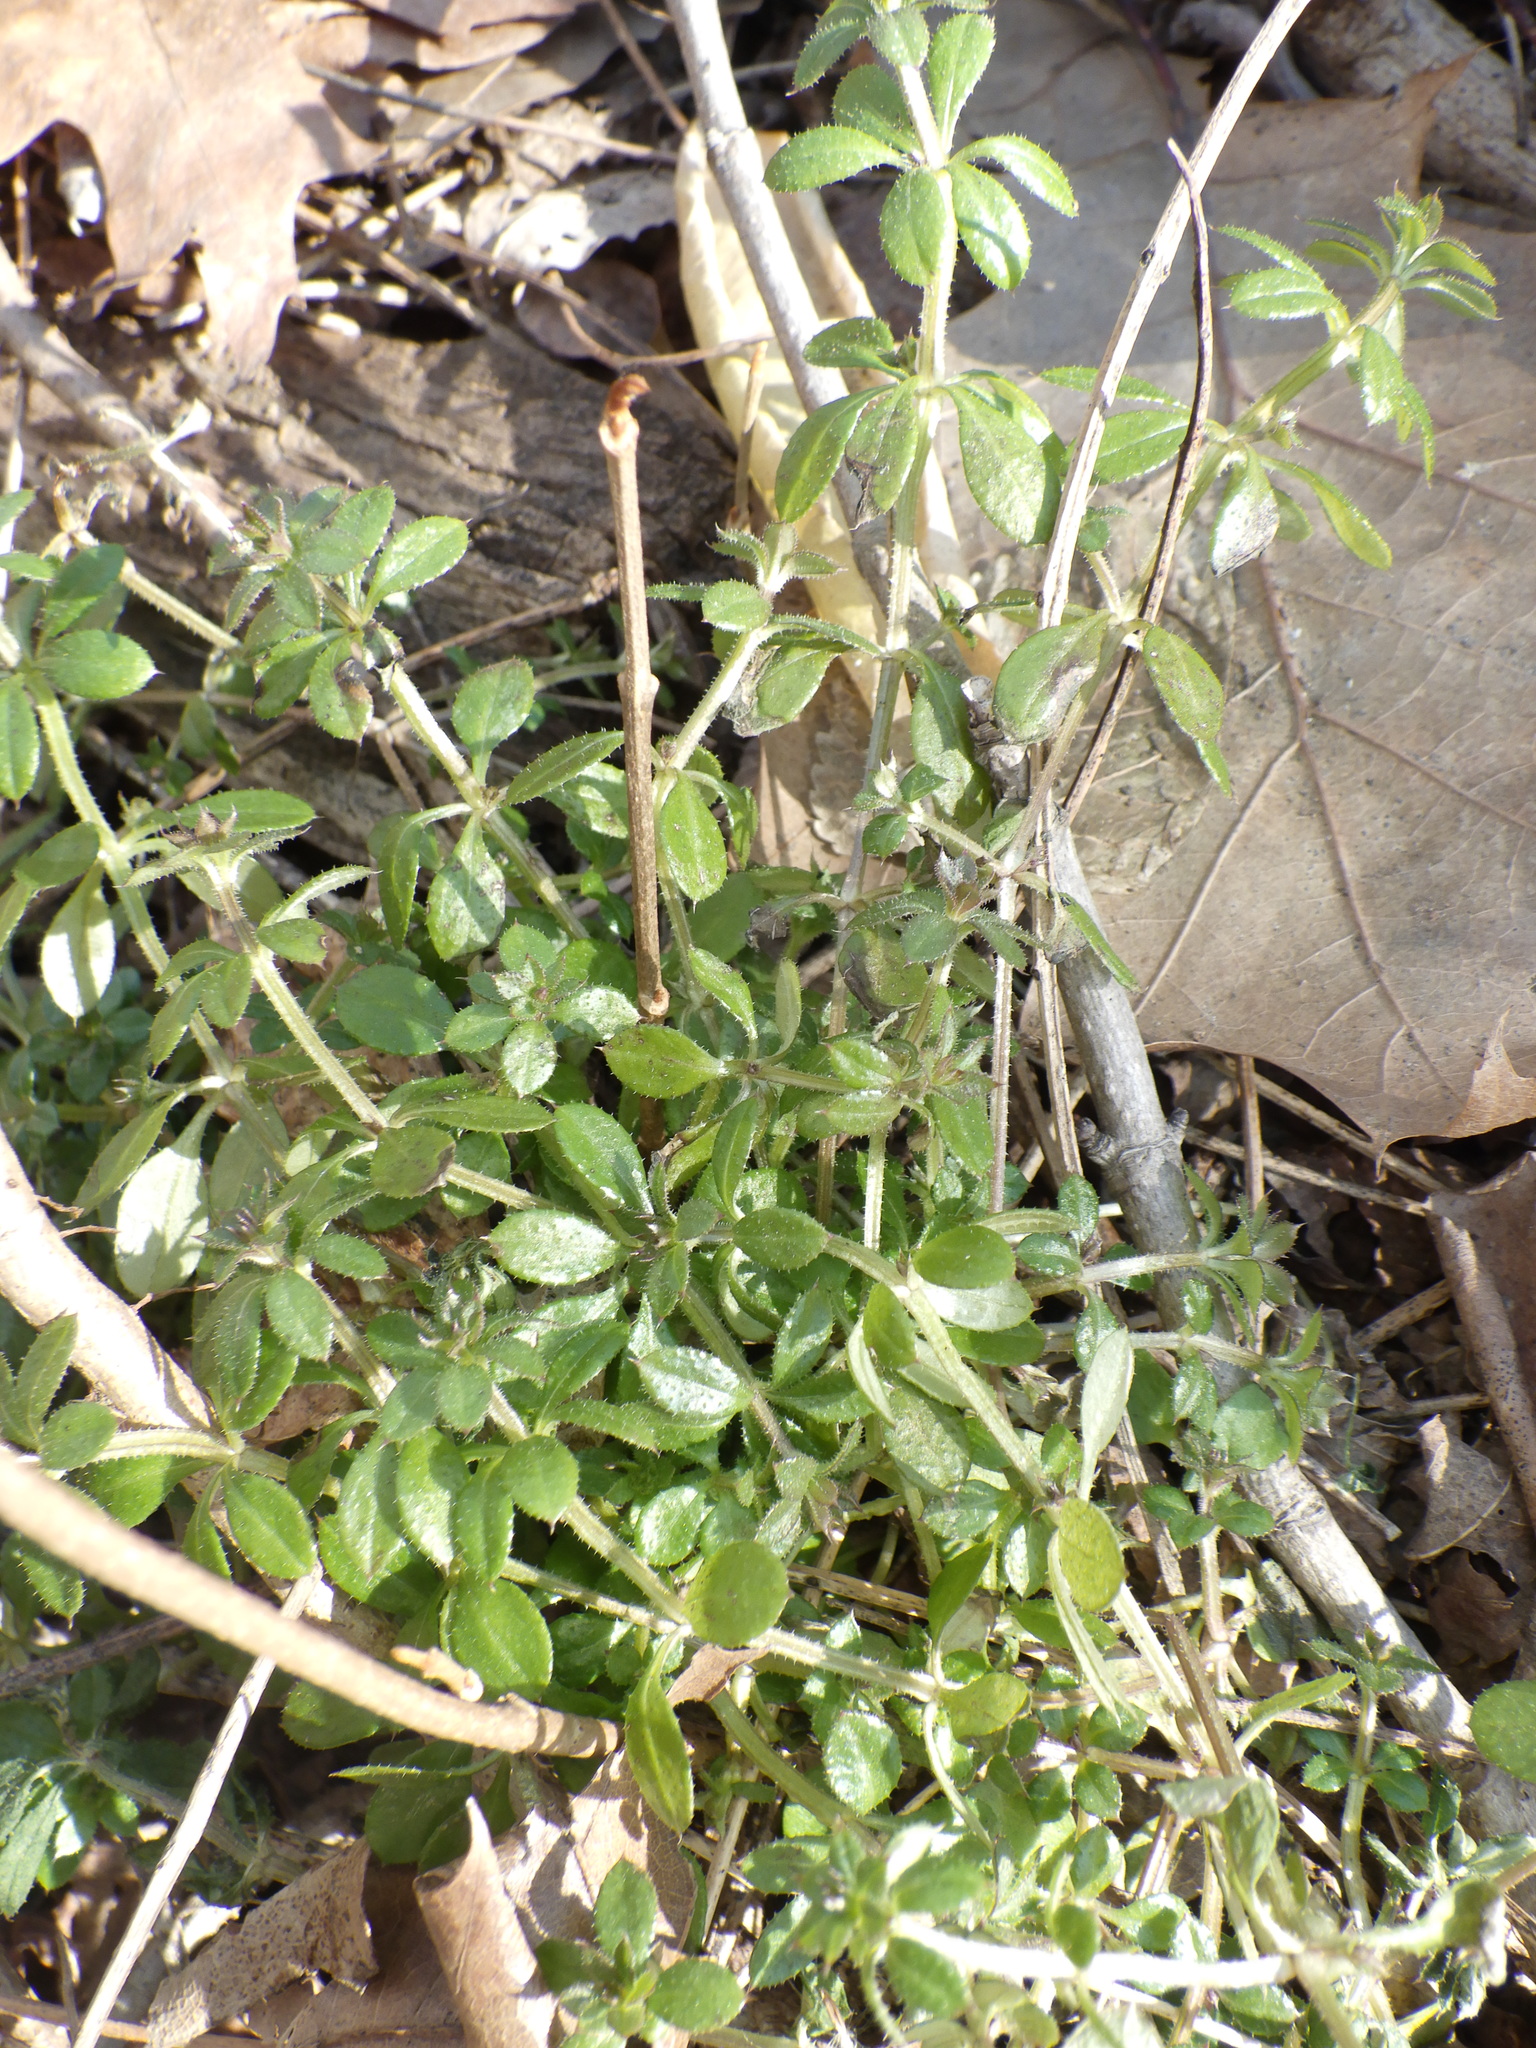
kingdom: Plantae
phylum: Tracheophyta
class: Magnoliopsida
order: Gentianales
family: Rubiaceae
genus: Galium
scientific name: Galium aparine
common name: Cleavers
